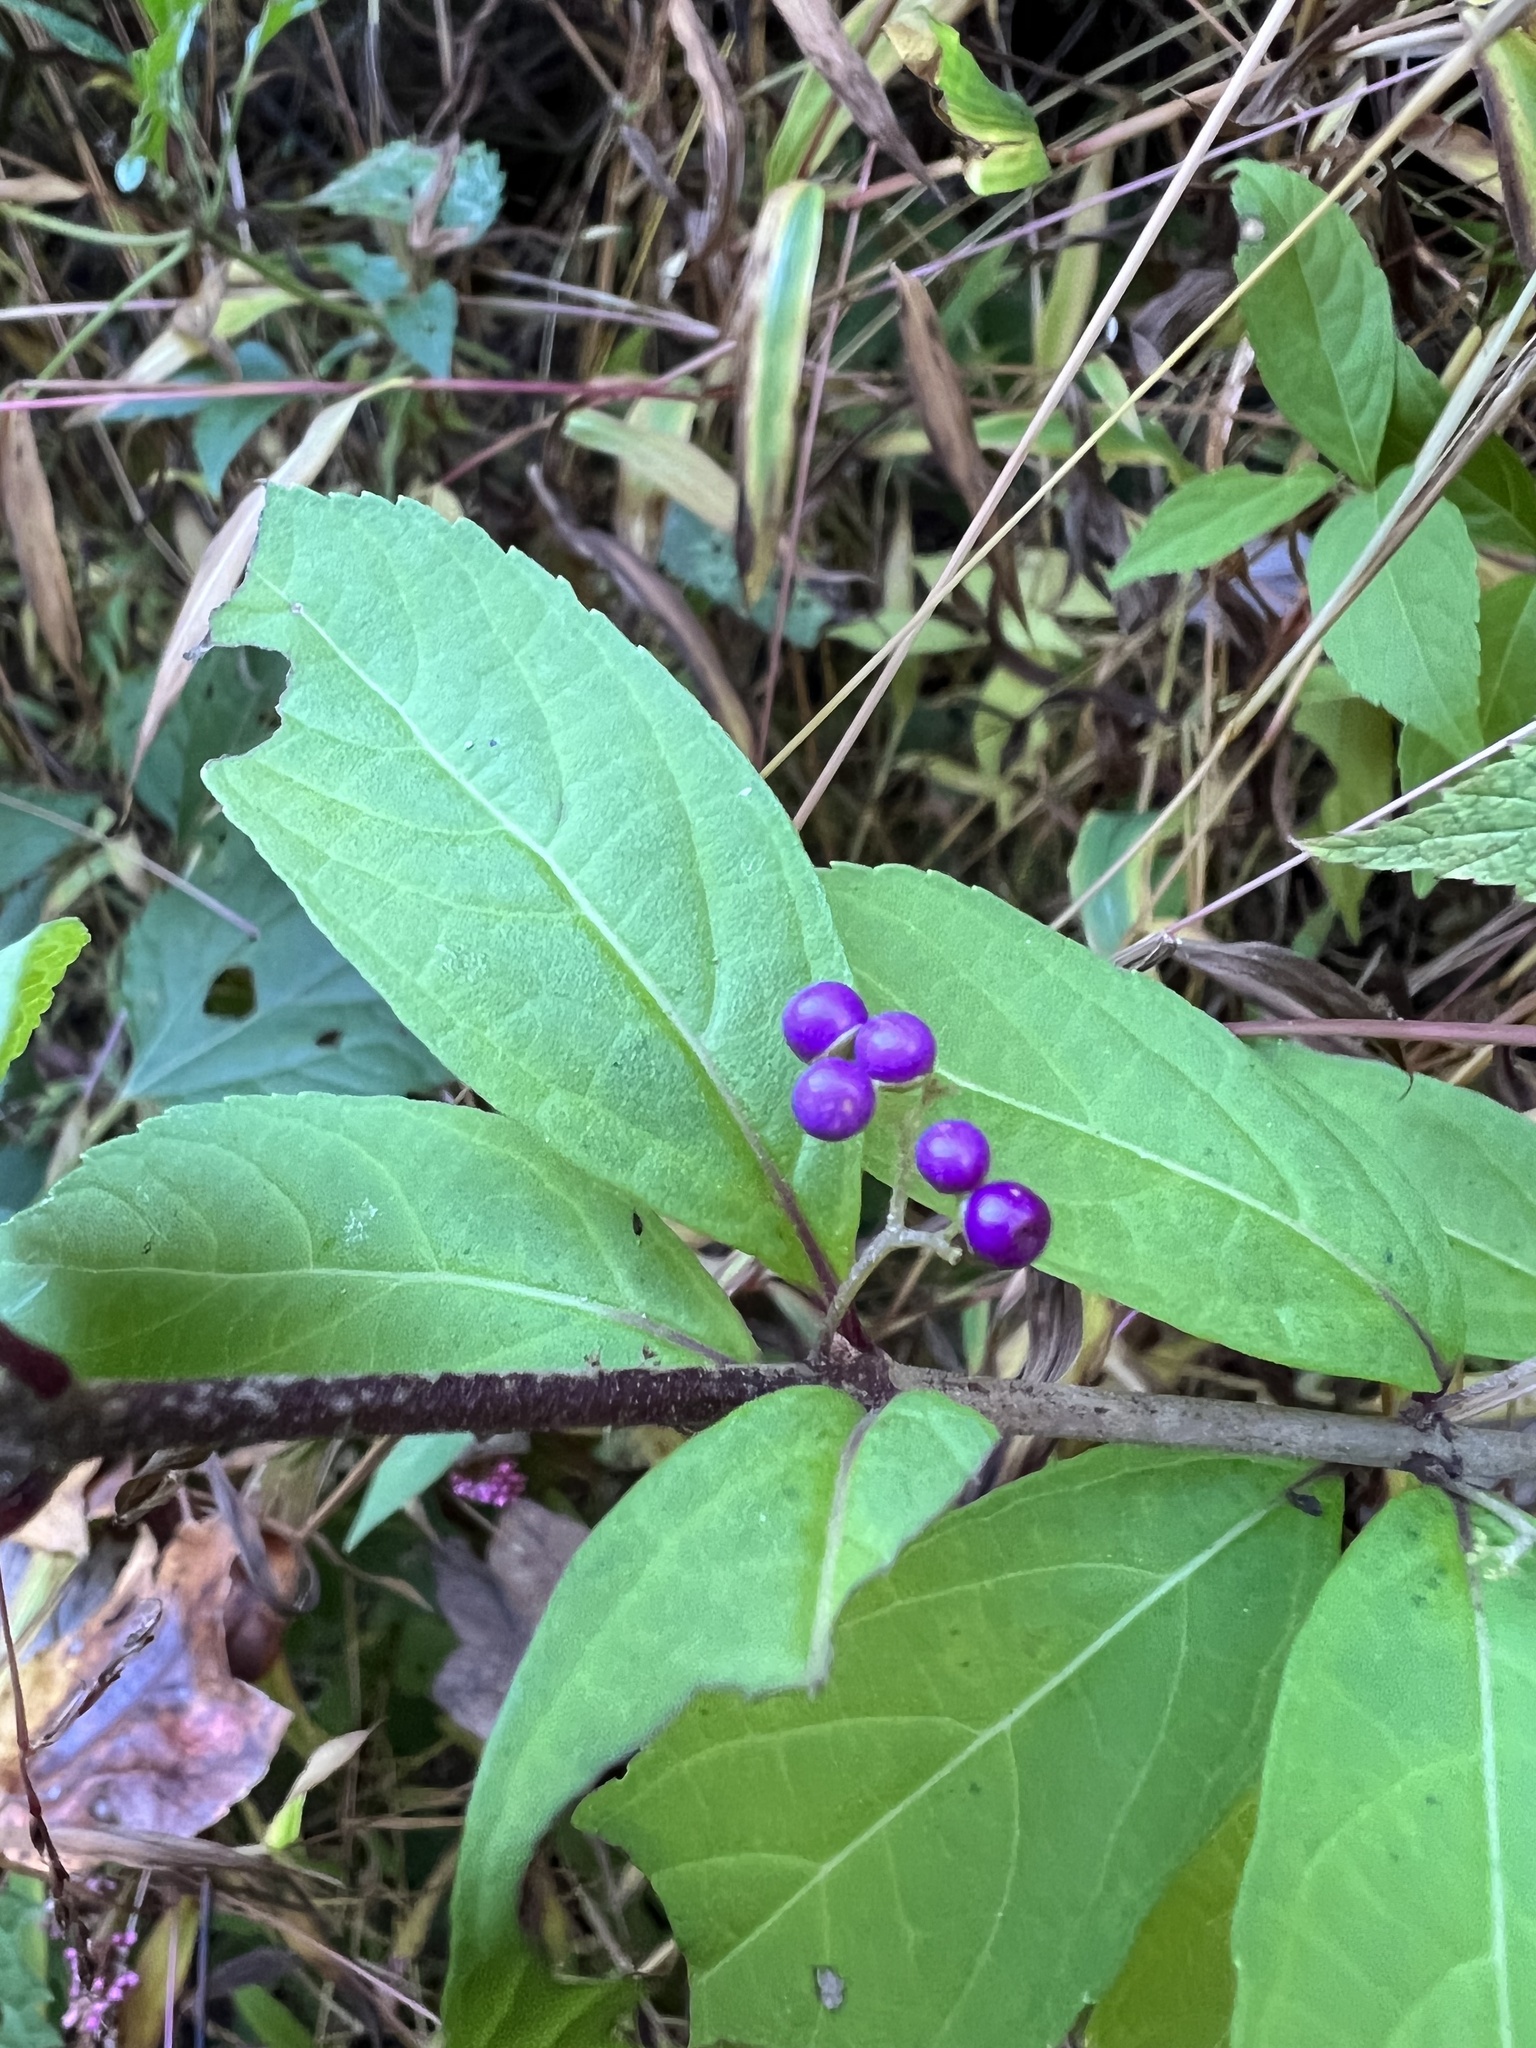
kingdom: Plantae
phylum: Tracheophyta
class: Magnoliopsida
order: Lamiales
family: Lamiaceae
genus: Callicarpa
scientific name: Callicarpa dichotoma
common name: Purple beauty-berry
